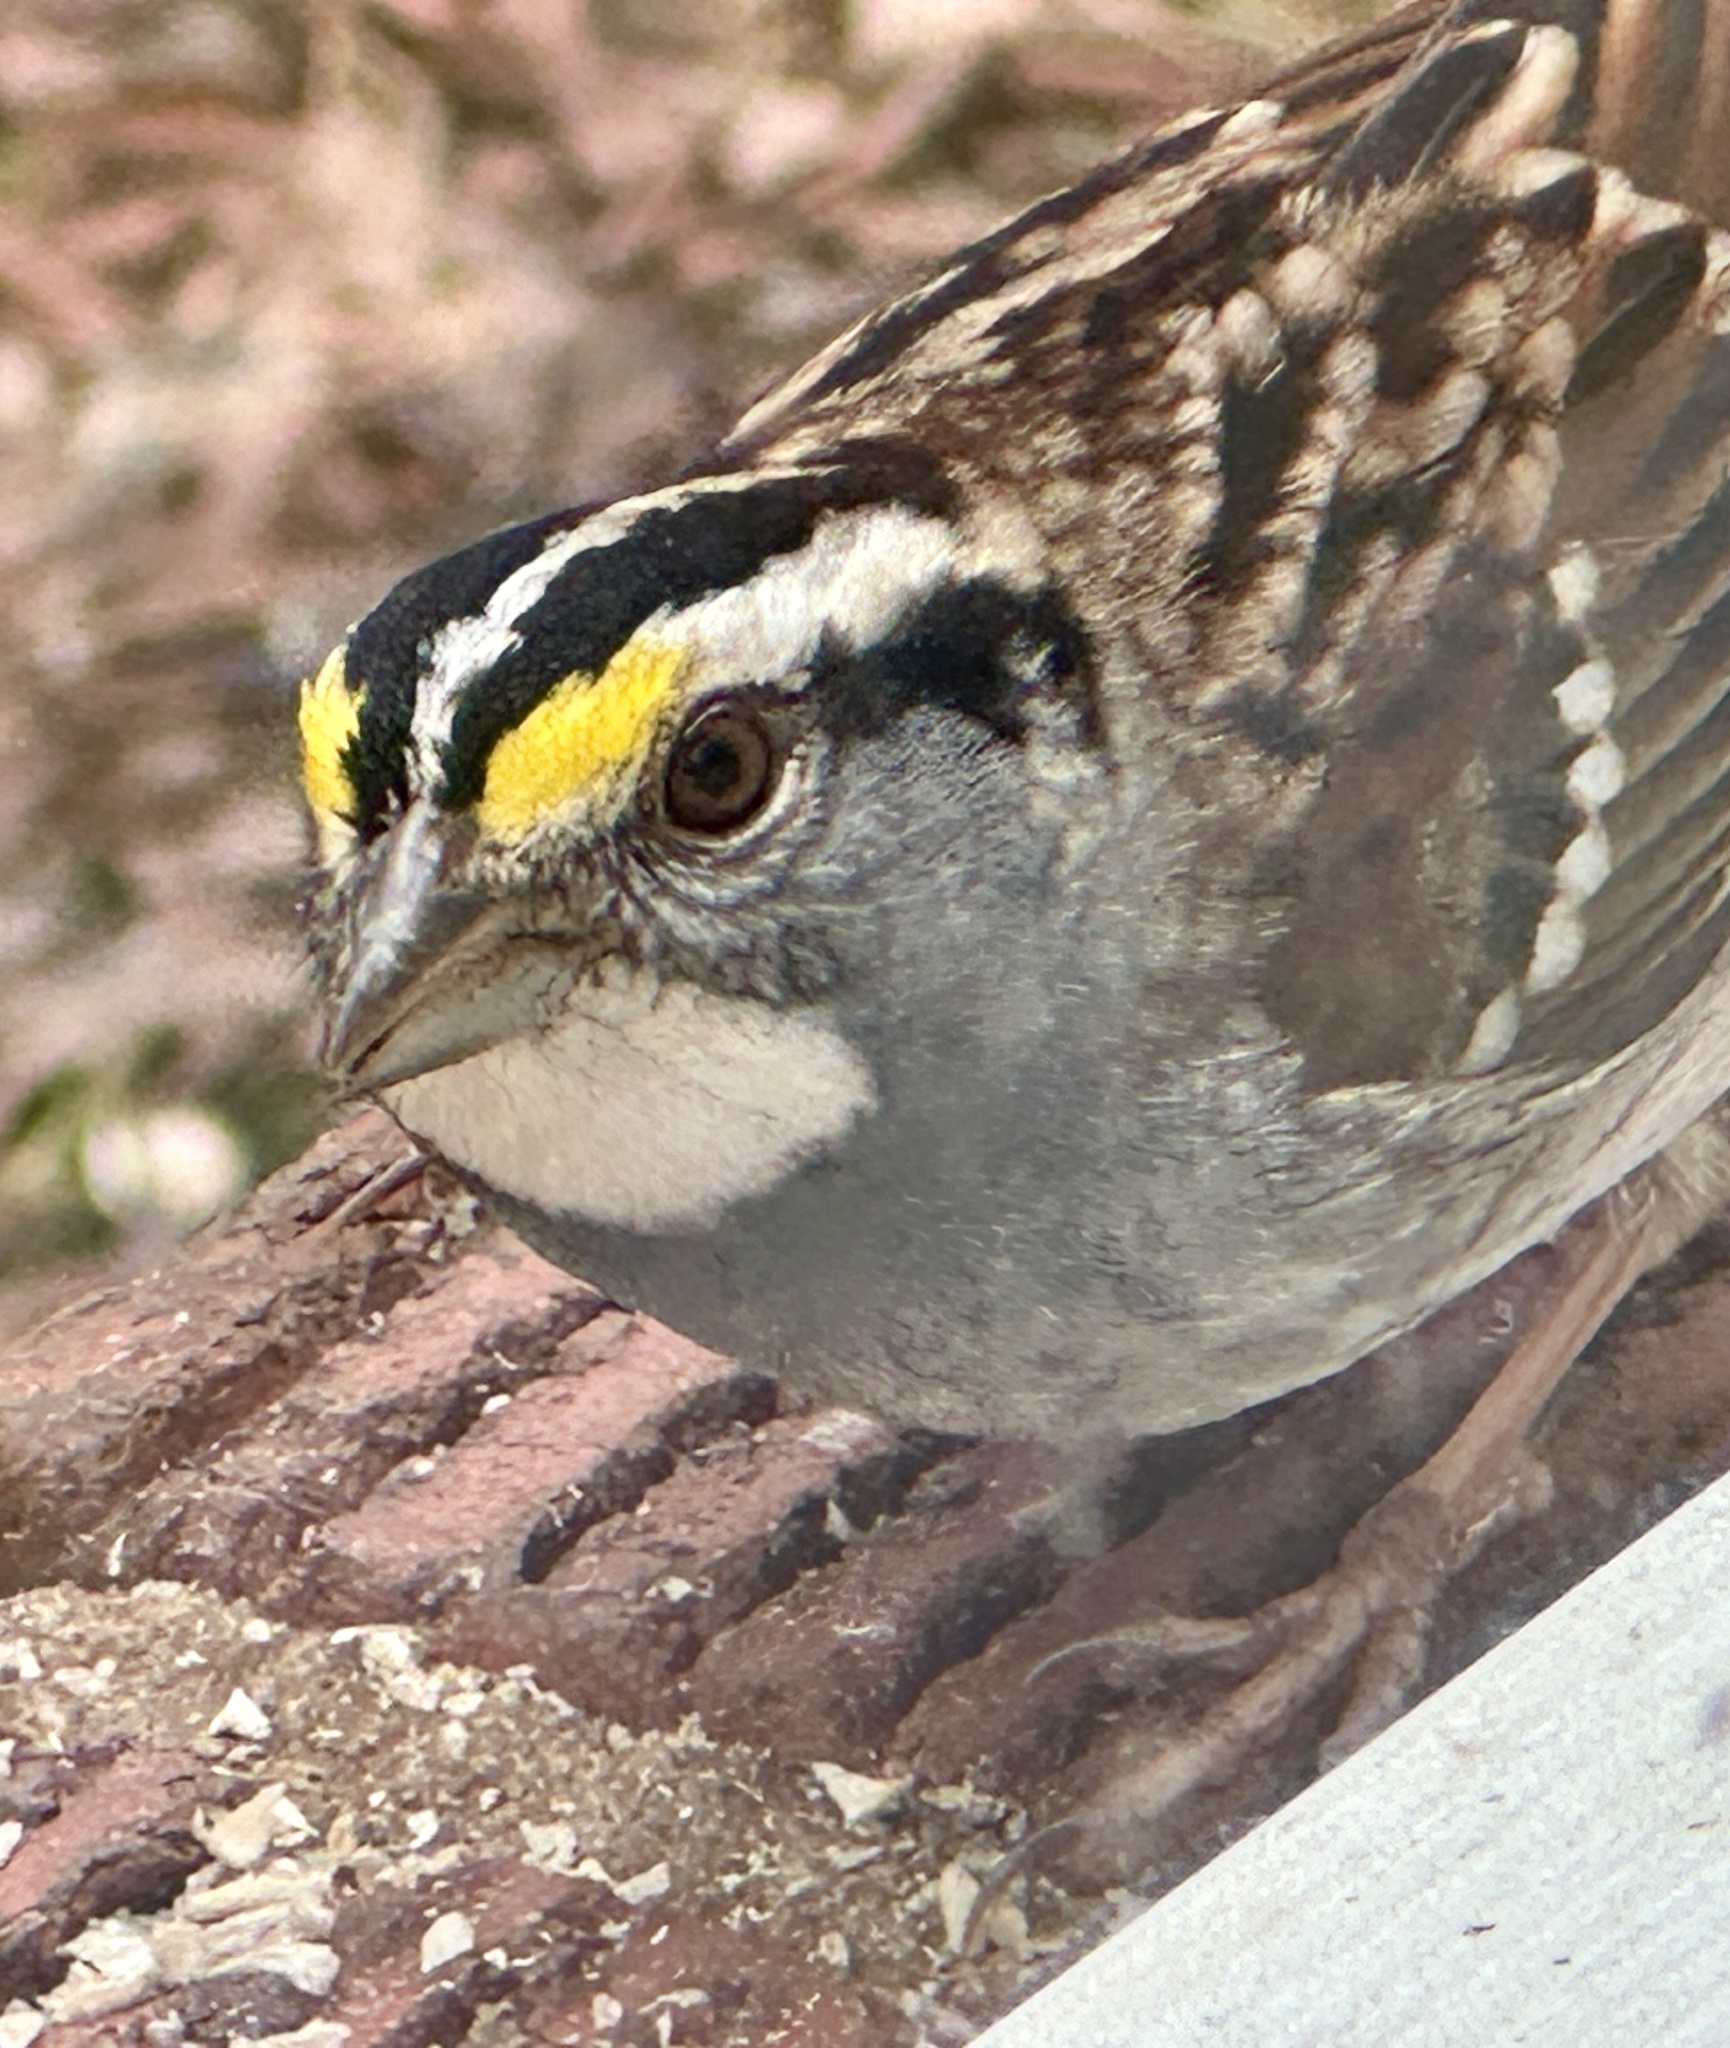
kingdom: Animalia
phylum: Chordata
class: Aves
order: Passeriformes
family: Passerellidae
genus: Zonotrichia
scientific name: Zonotrichia albicollis
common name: White-throated sparrow
